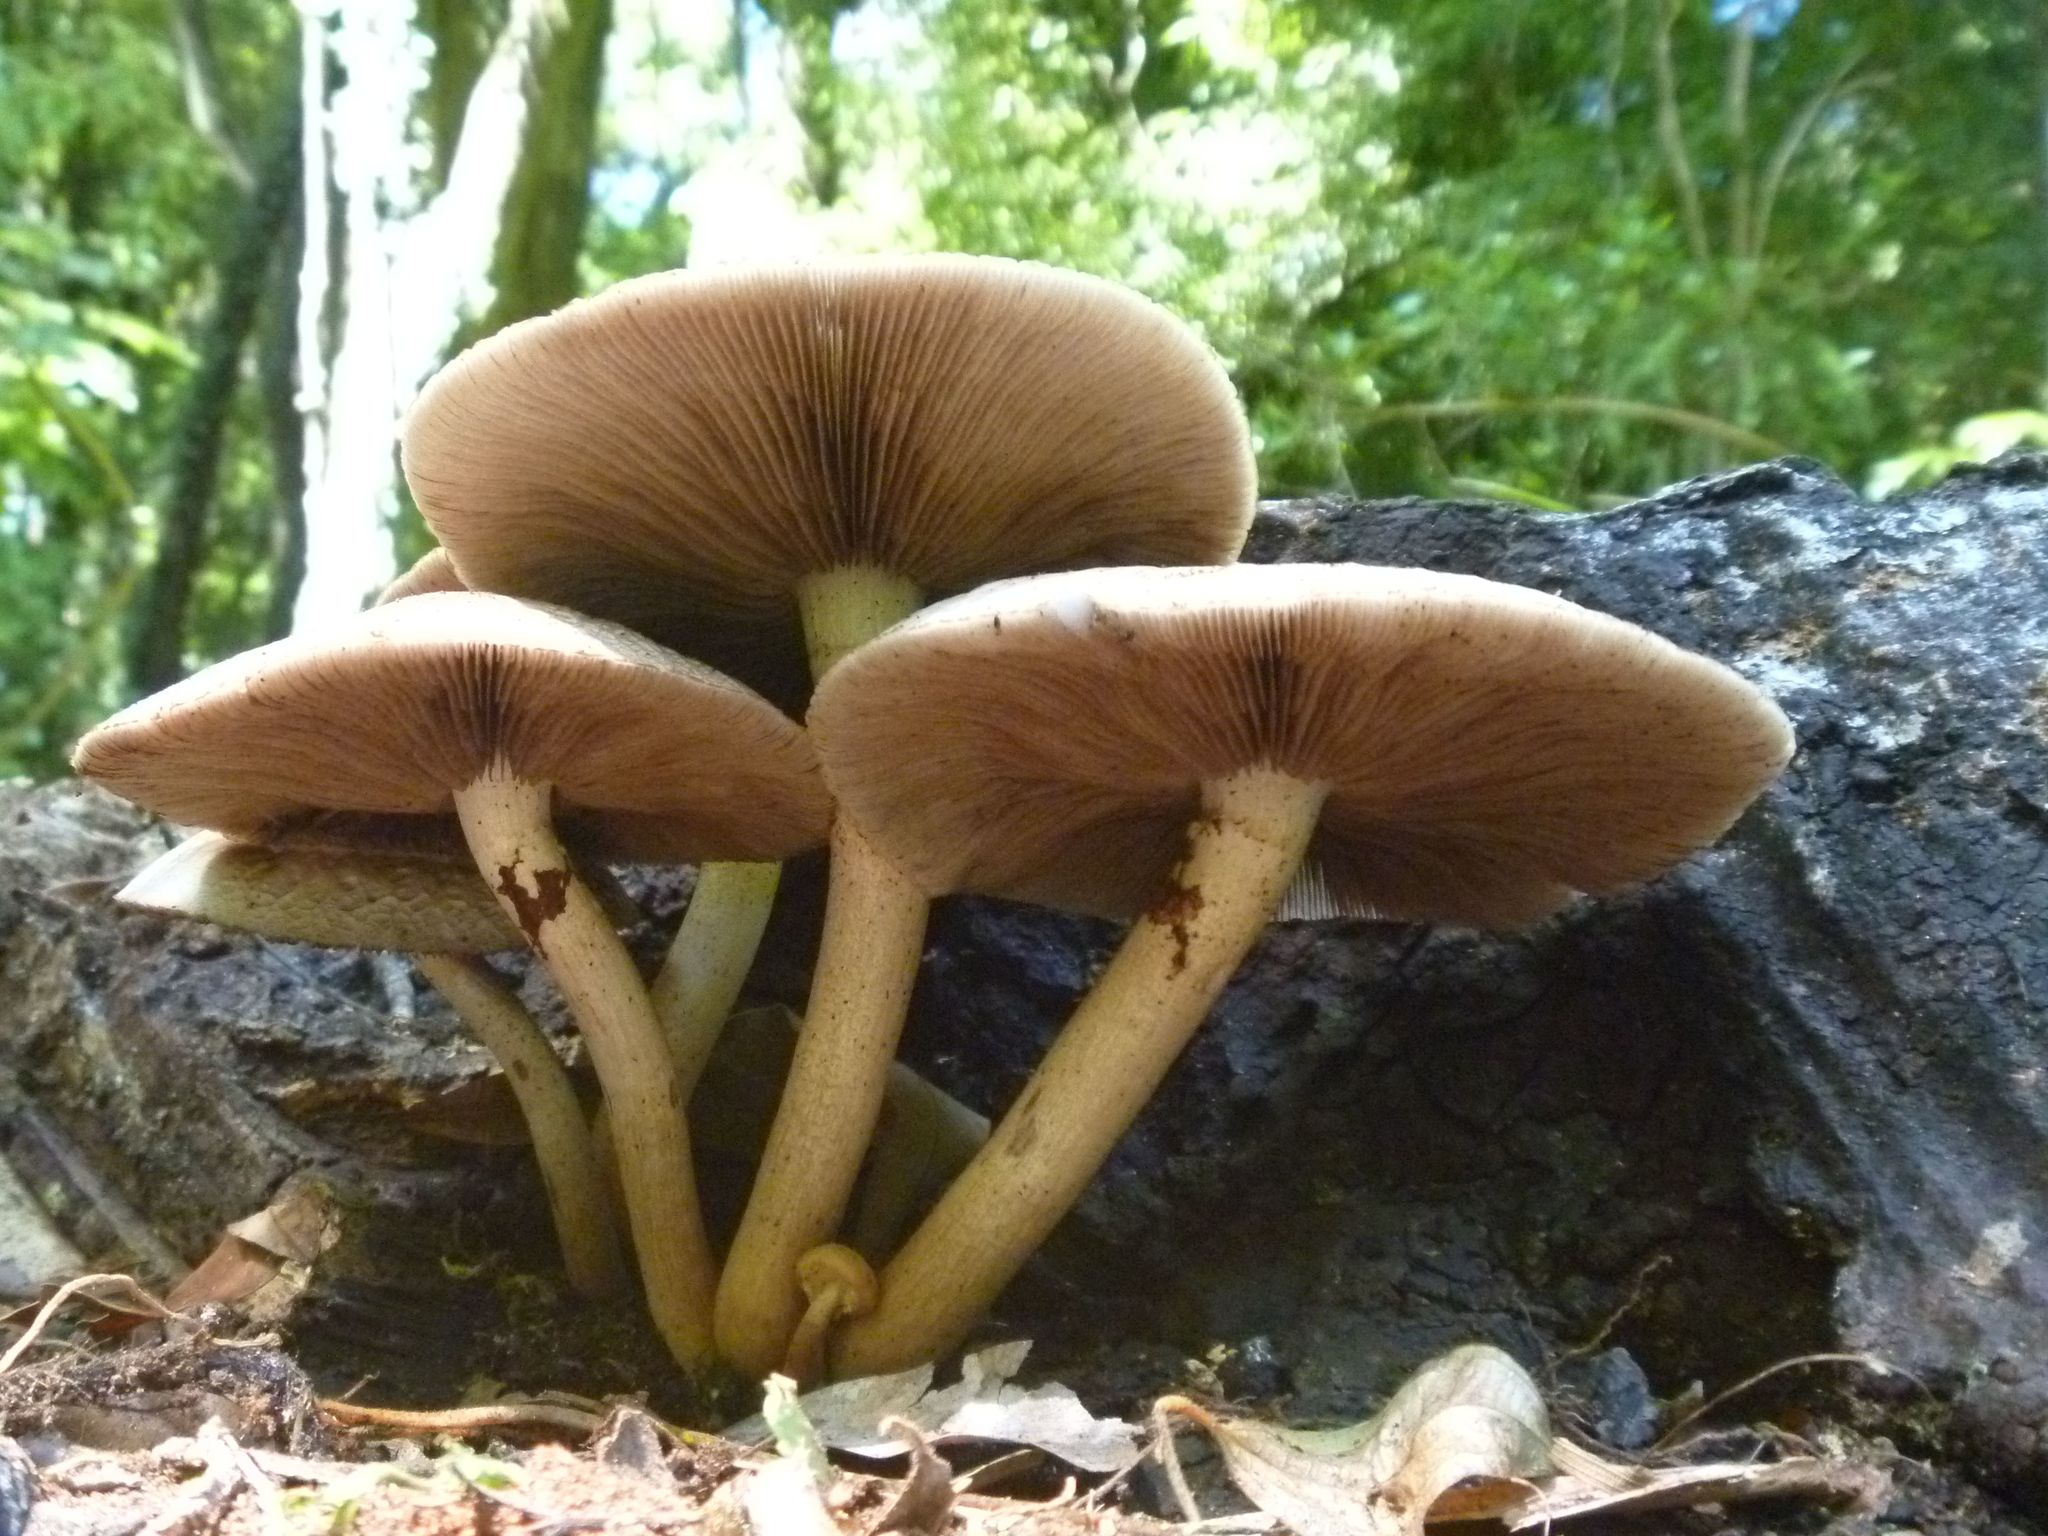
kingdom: Fungi
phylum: Basidiomycota
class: Agaricomycetes
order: Agaricales
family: Tubariaceae
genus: Cyclocybe
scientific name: Cyclocybe parasitica
